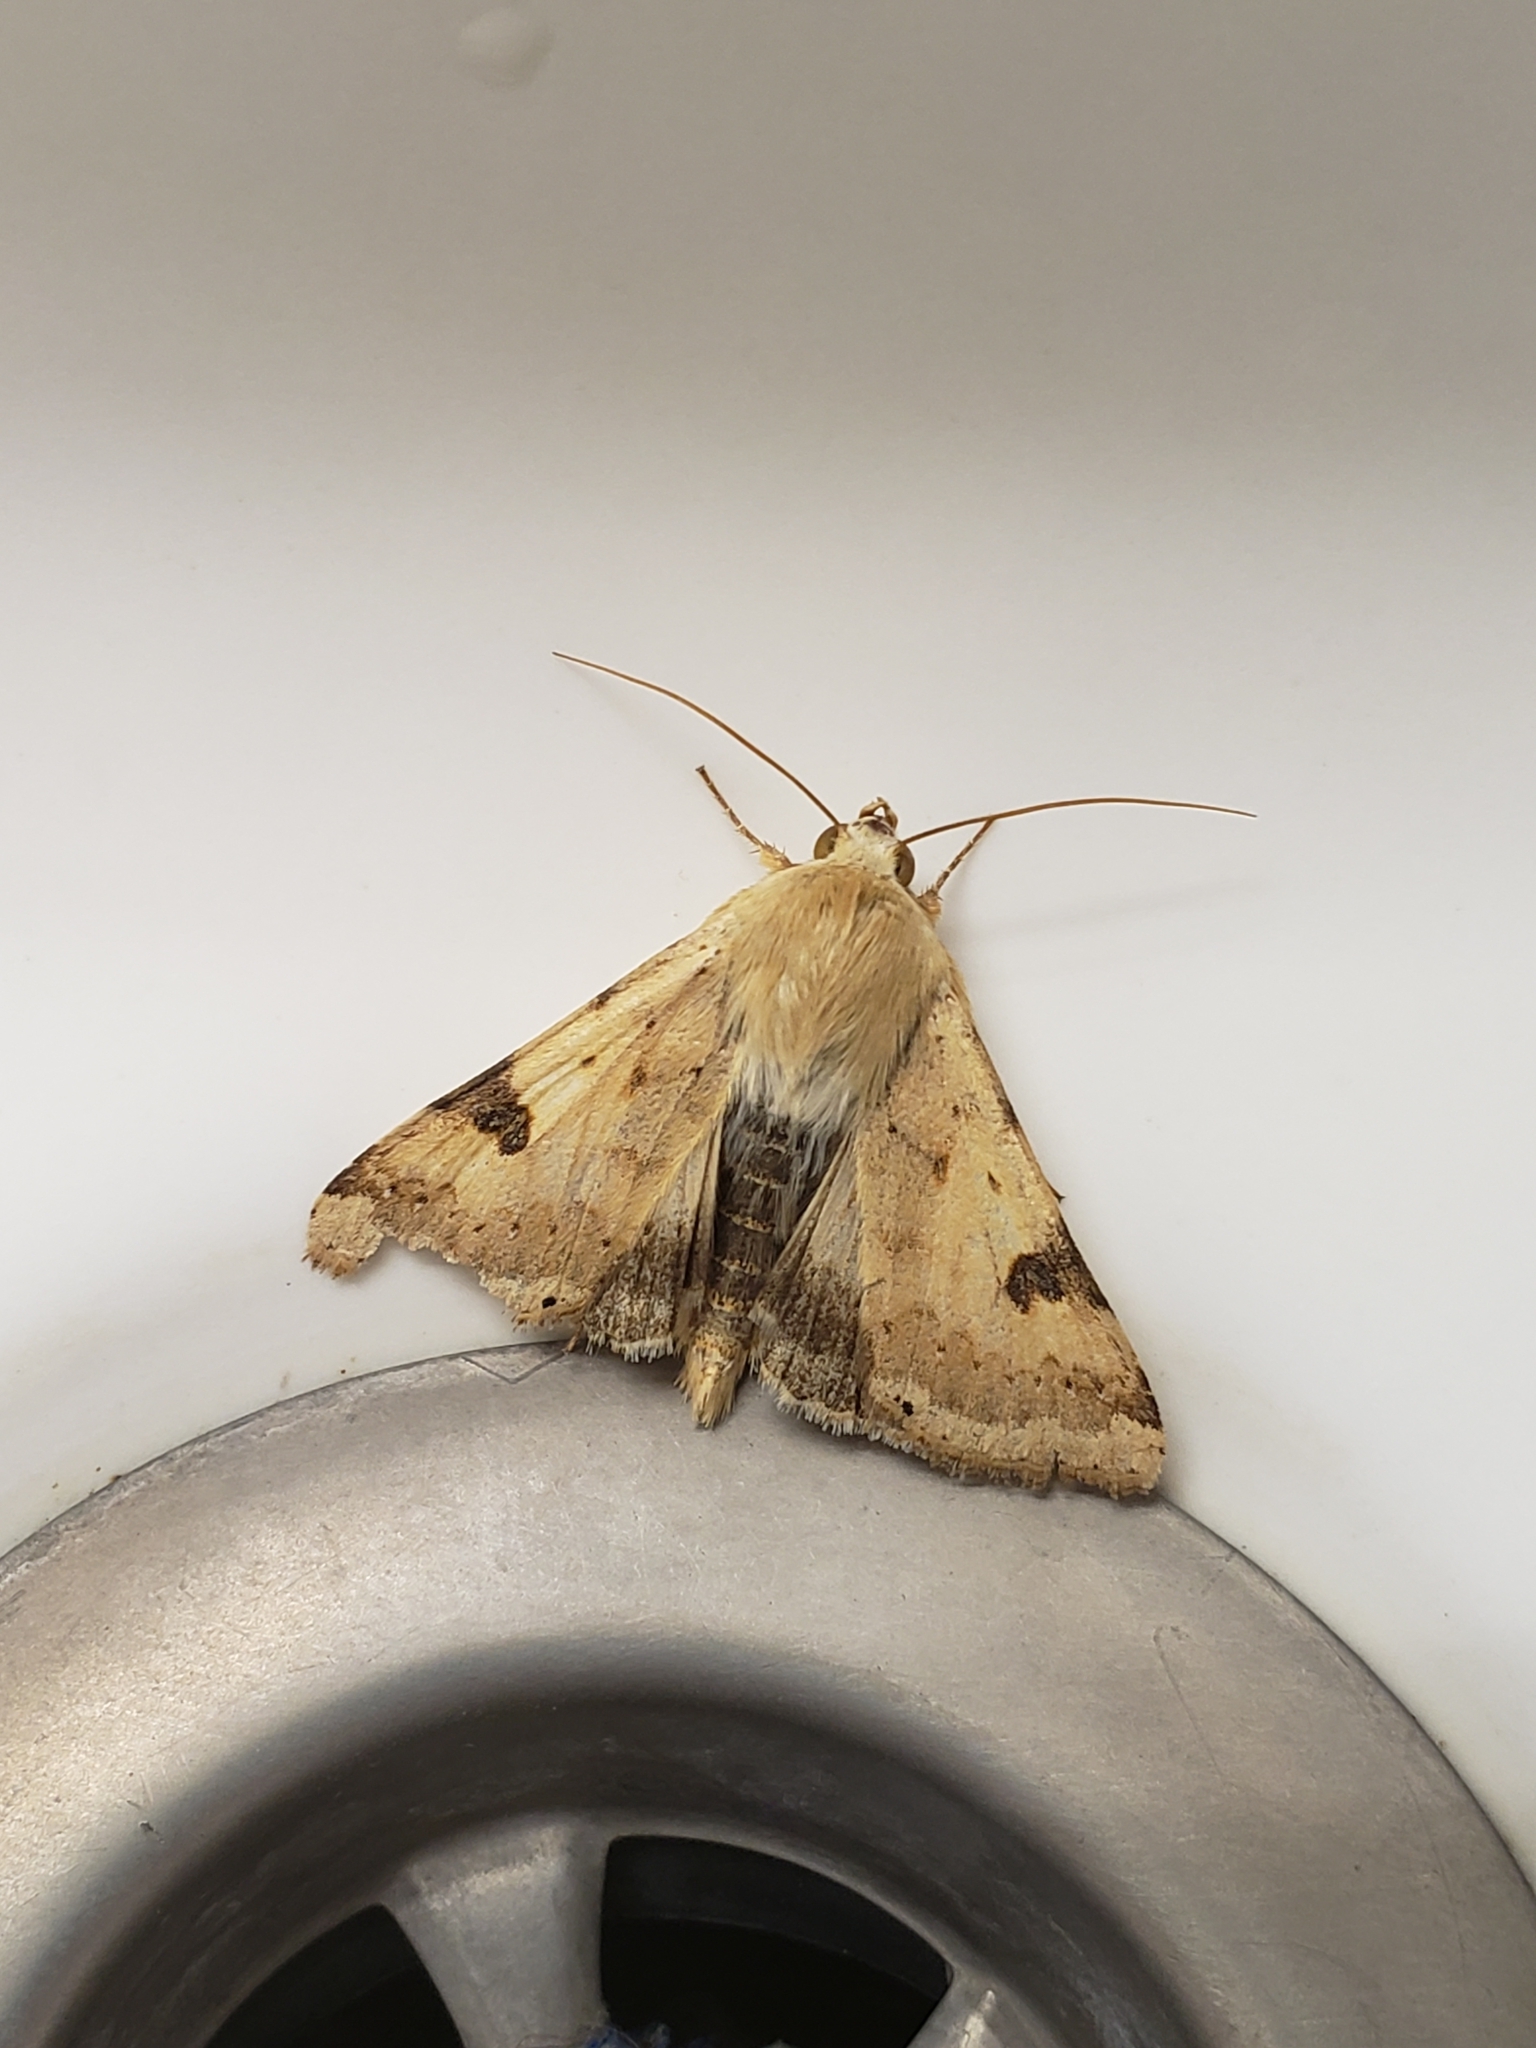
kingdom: Animalia
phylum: Arthropoda
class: Insecta
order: Lepidoptera
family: Noctuidae
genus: Heliothis
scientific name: Heliothis peltigera
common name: Bordered straw
